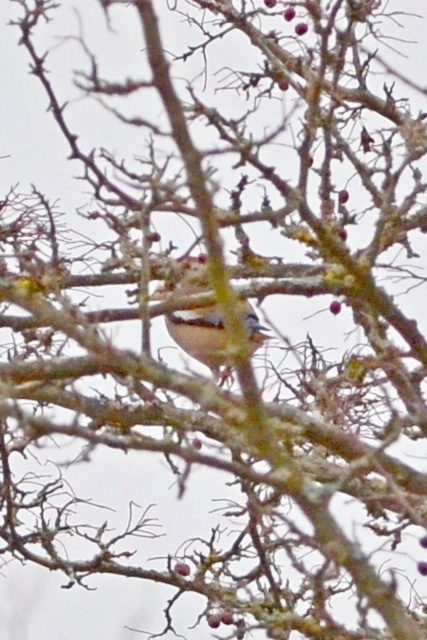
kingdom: Animalia
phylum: Chordata
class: Aves
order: Passeriformes
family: Fringillidae
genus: Coccothraustes
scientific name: Coccothraustes coccothraustes
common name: Hawfinch
